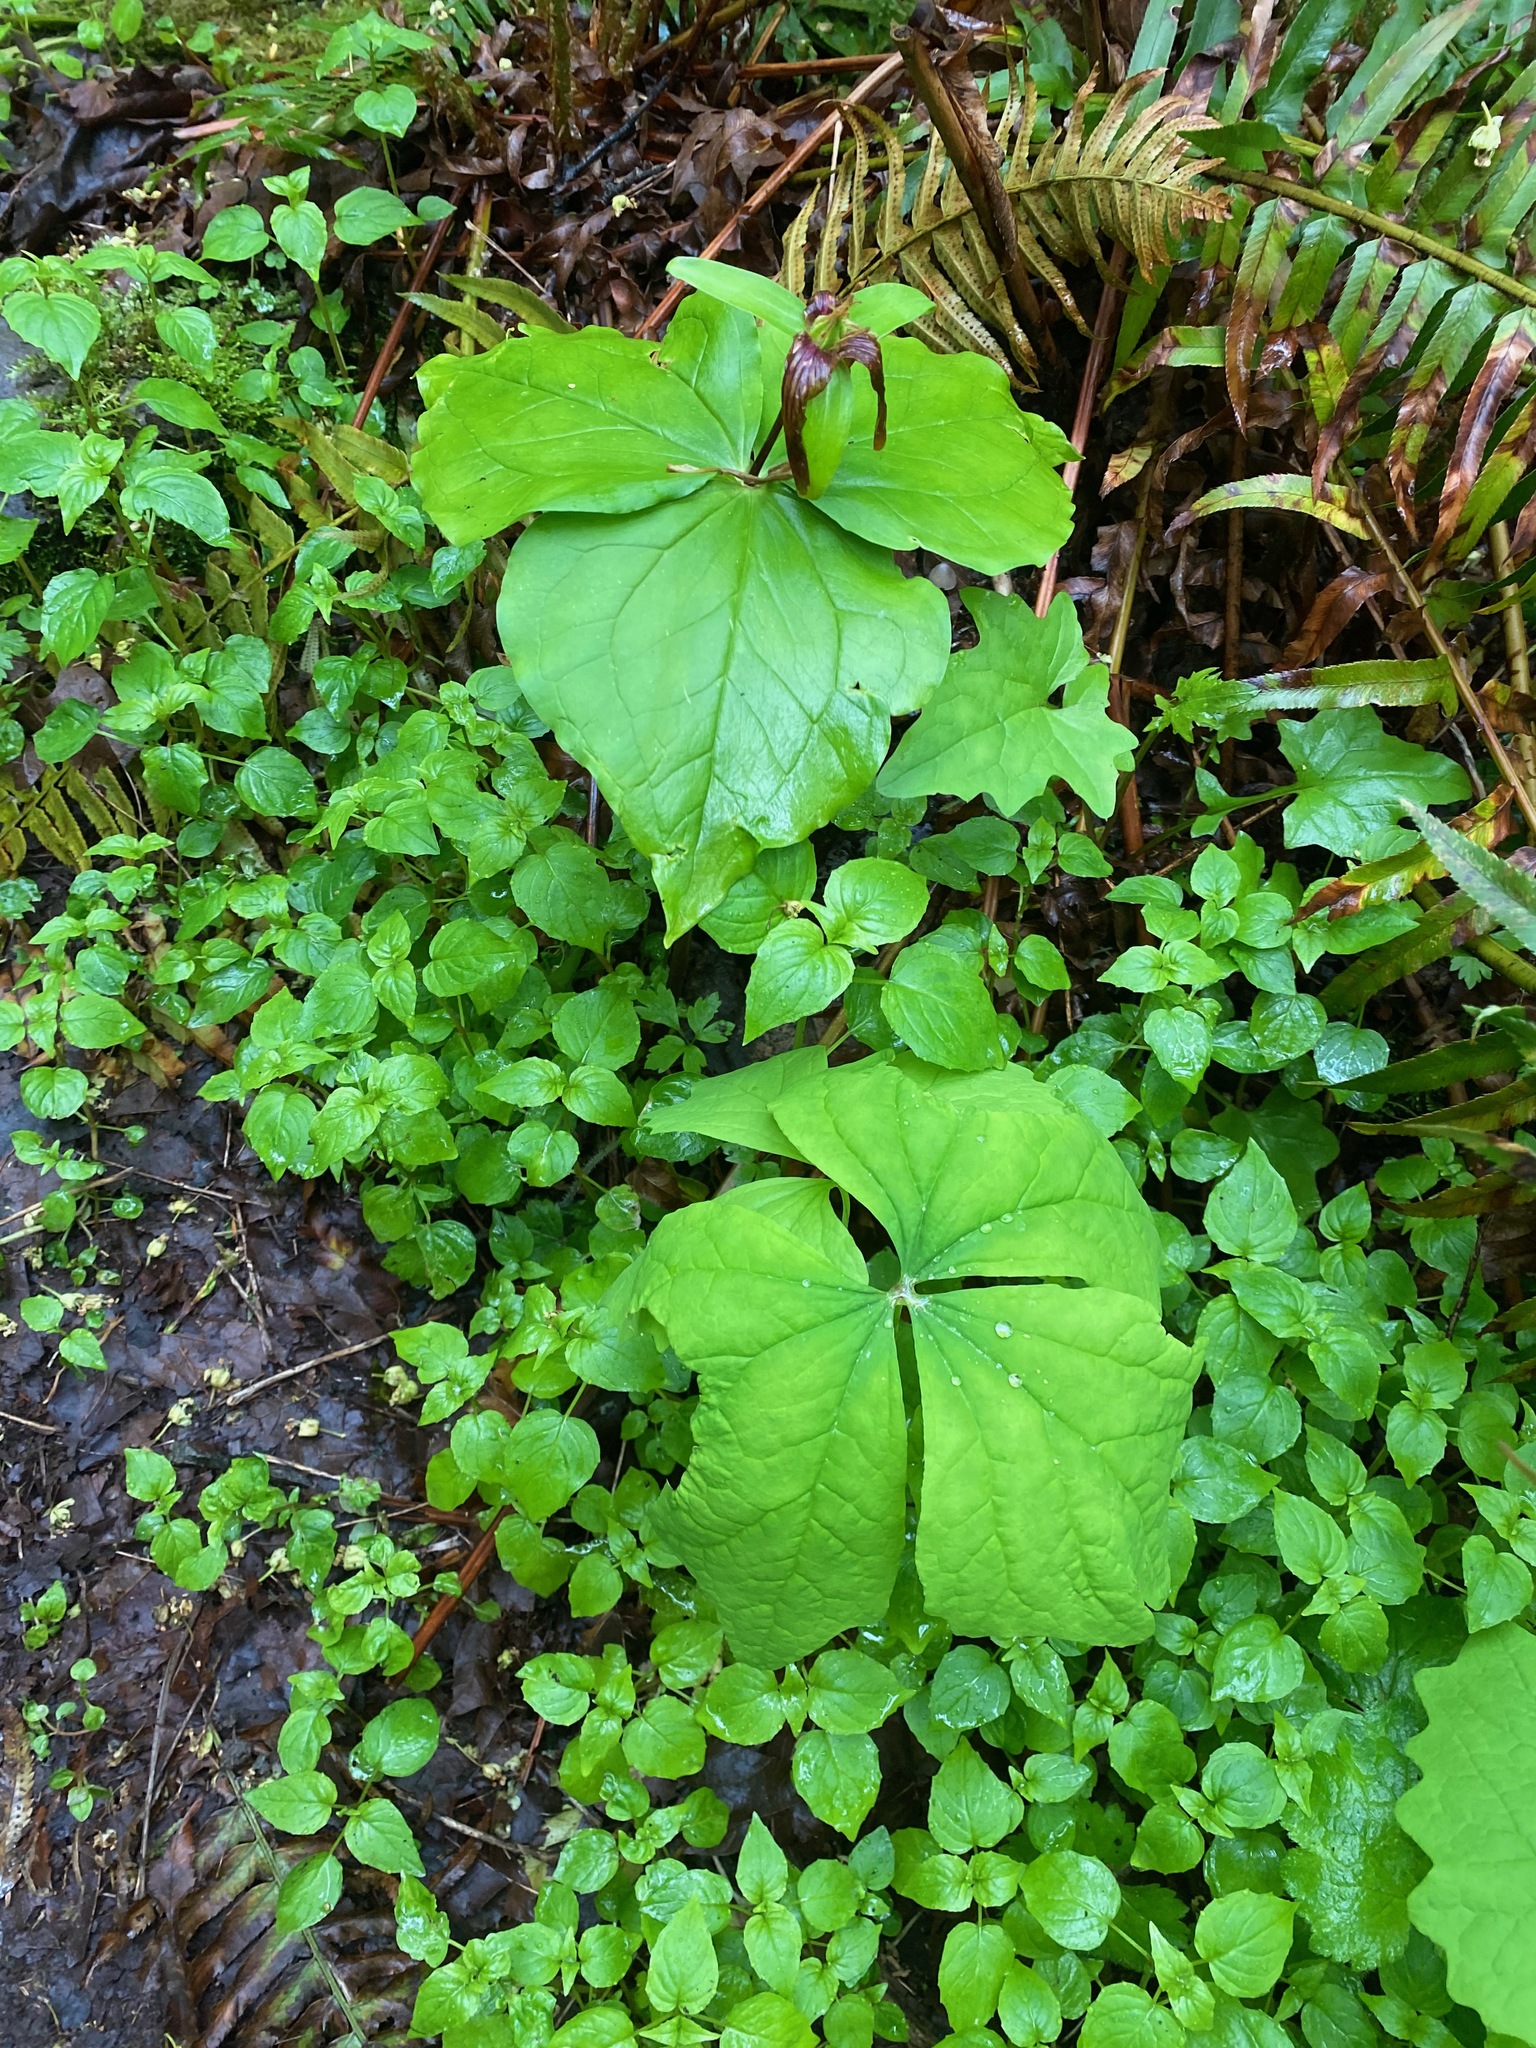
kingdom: Plantae
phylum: Tracheophyta
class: Magnoliopsida
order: Ranunculales
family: Berberidaceae
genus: Achlys
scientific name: Achlys triphylla
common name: Vanilla-leaf
